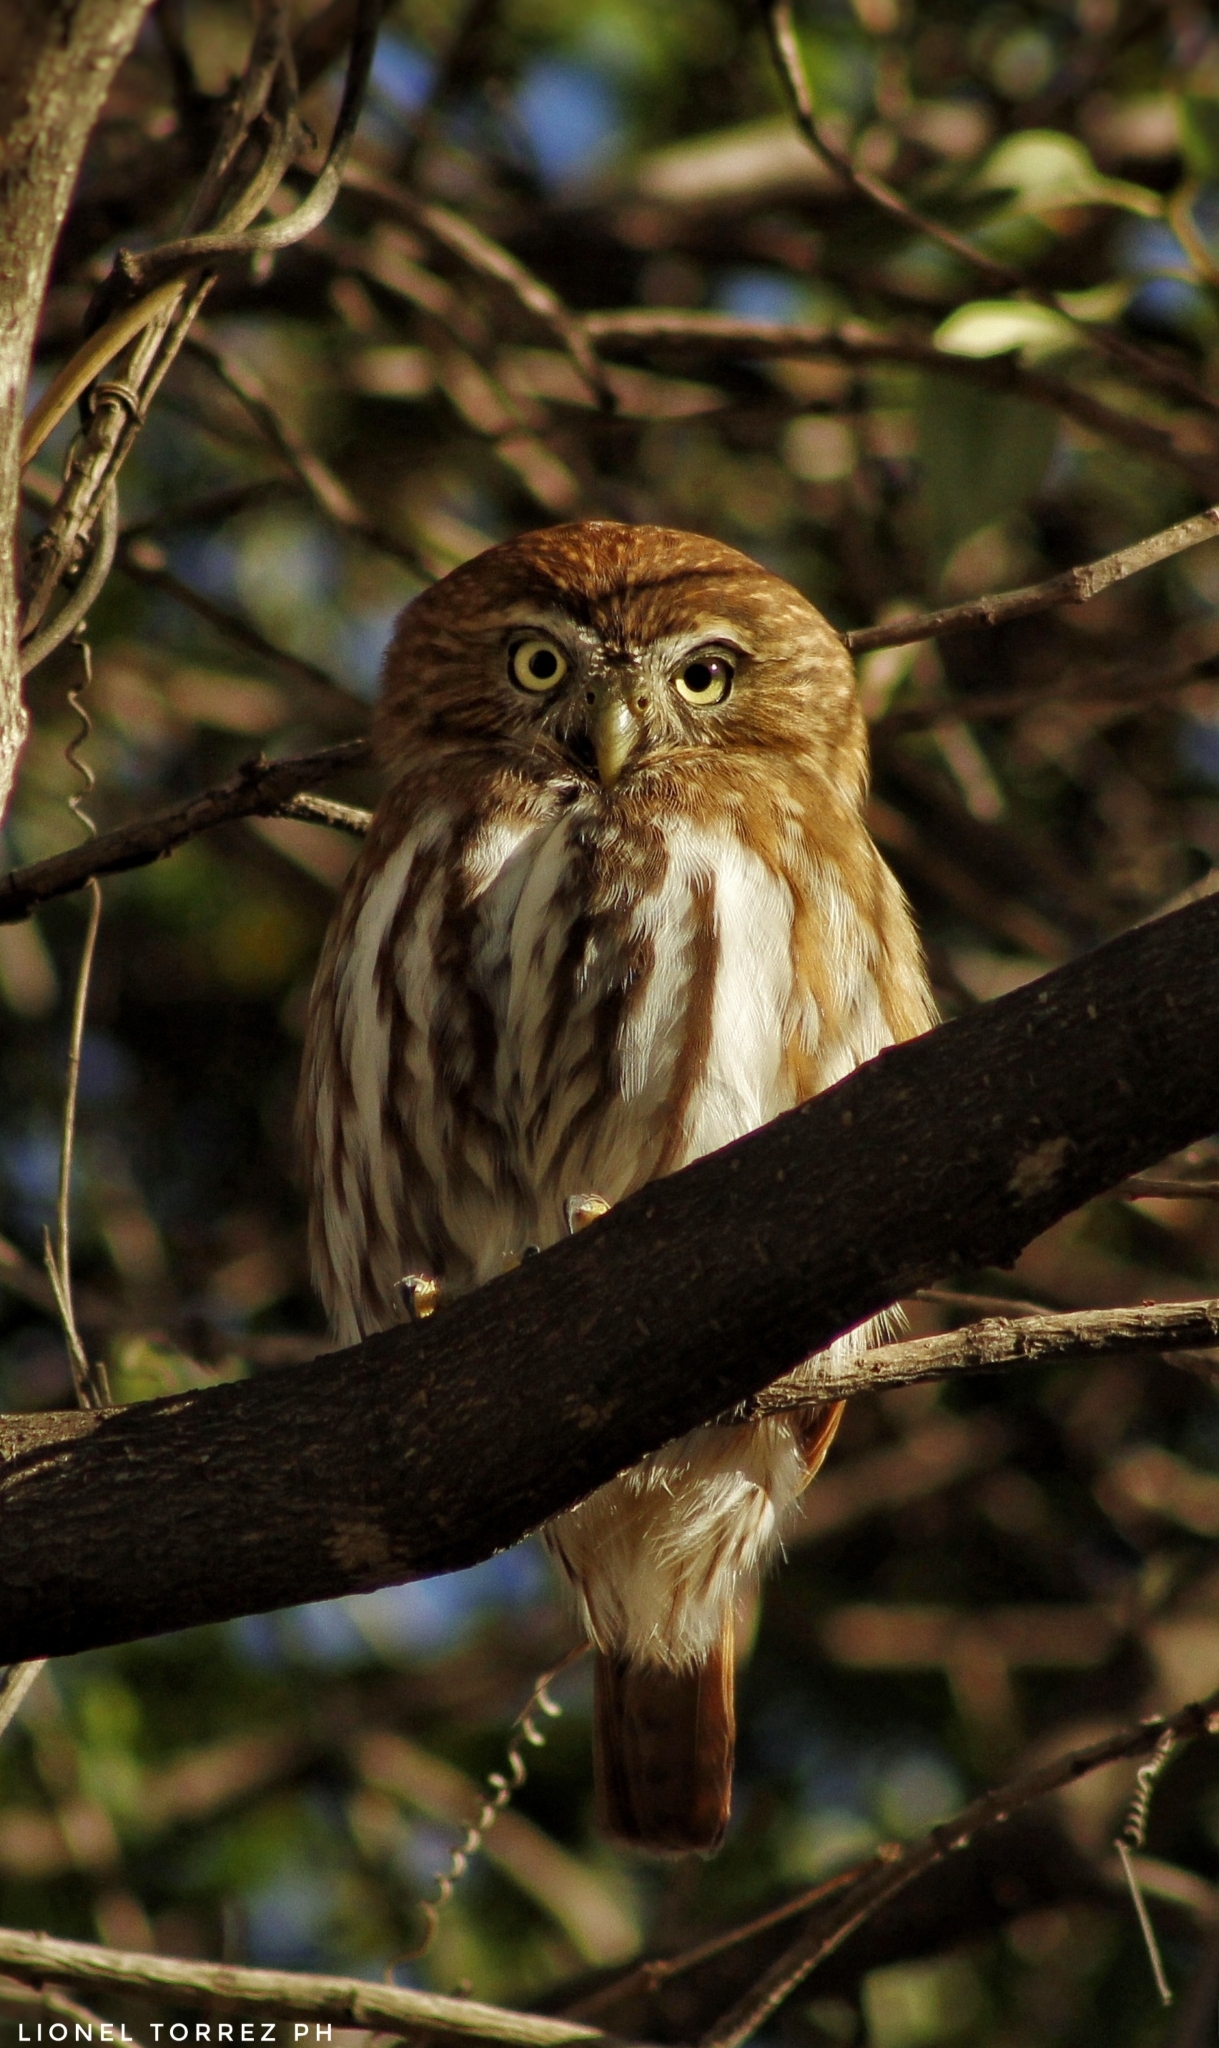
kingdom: Animalia
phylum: Chordata
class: Aves
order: Strigiformes
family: Strigidae
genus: Glaucidium
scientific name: Glaucidium brasilianum
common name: Ferruginous pygmy-owl
